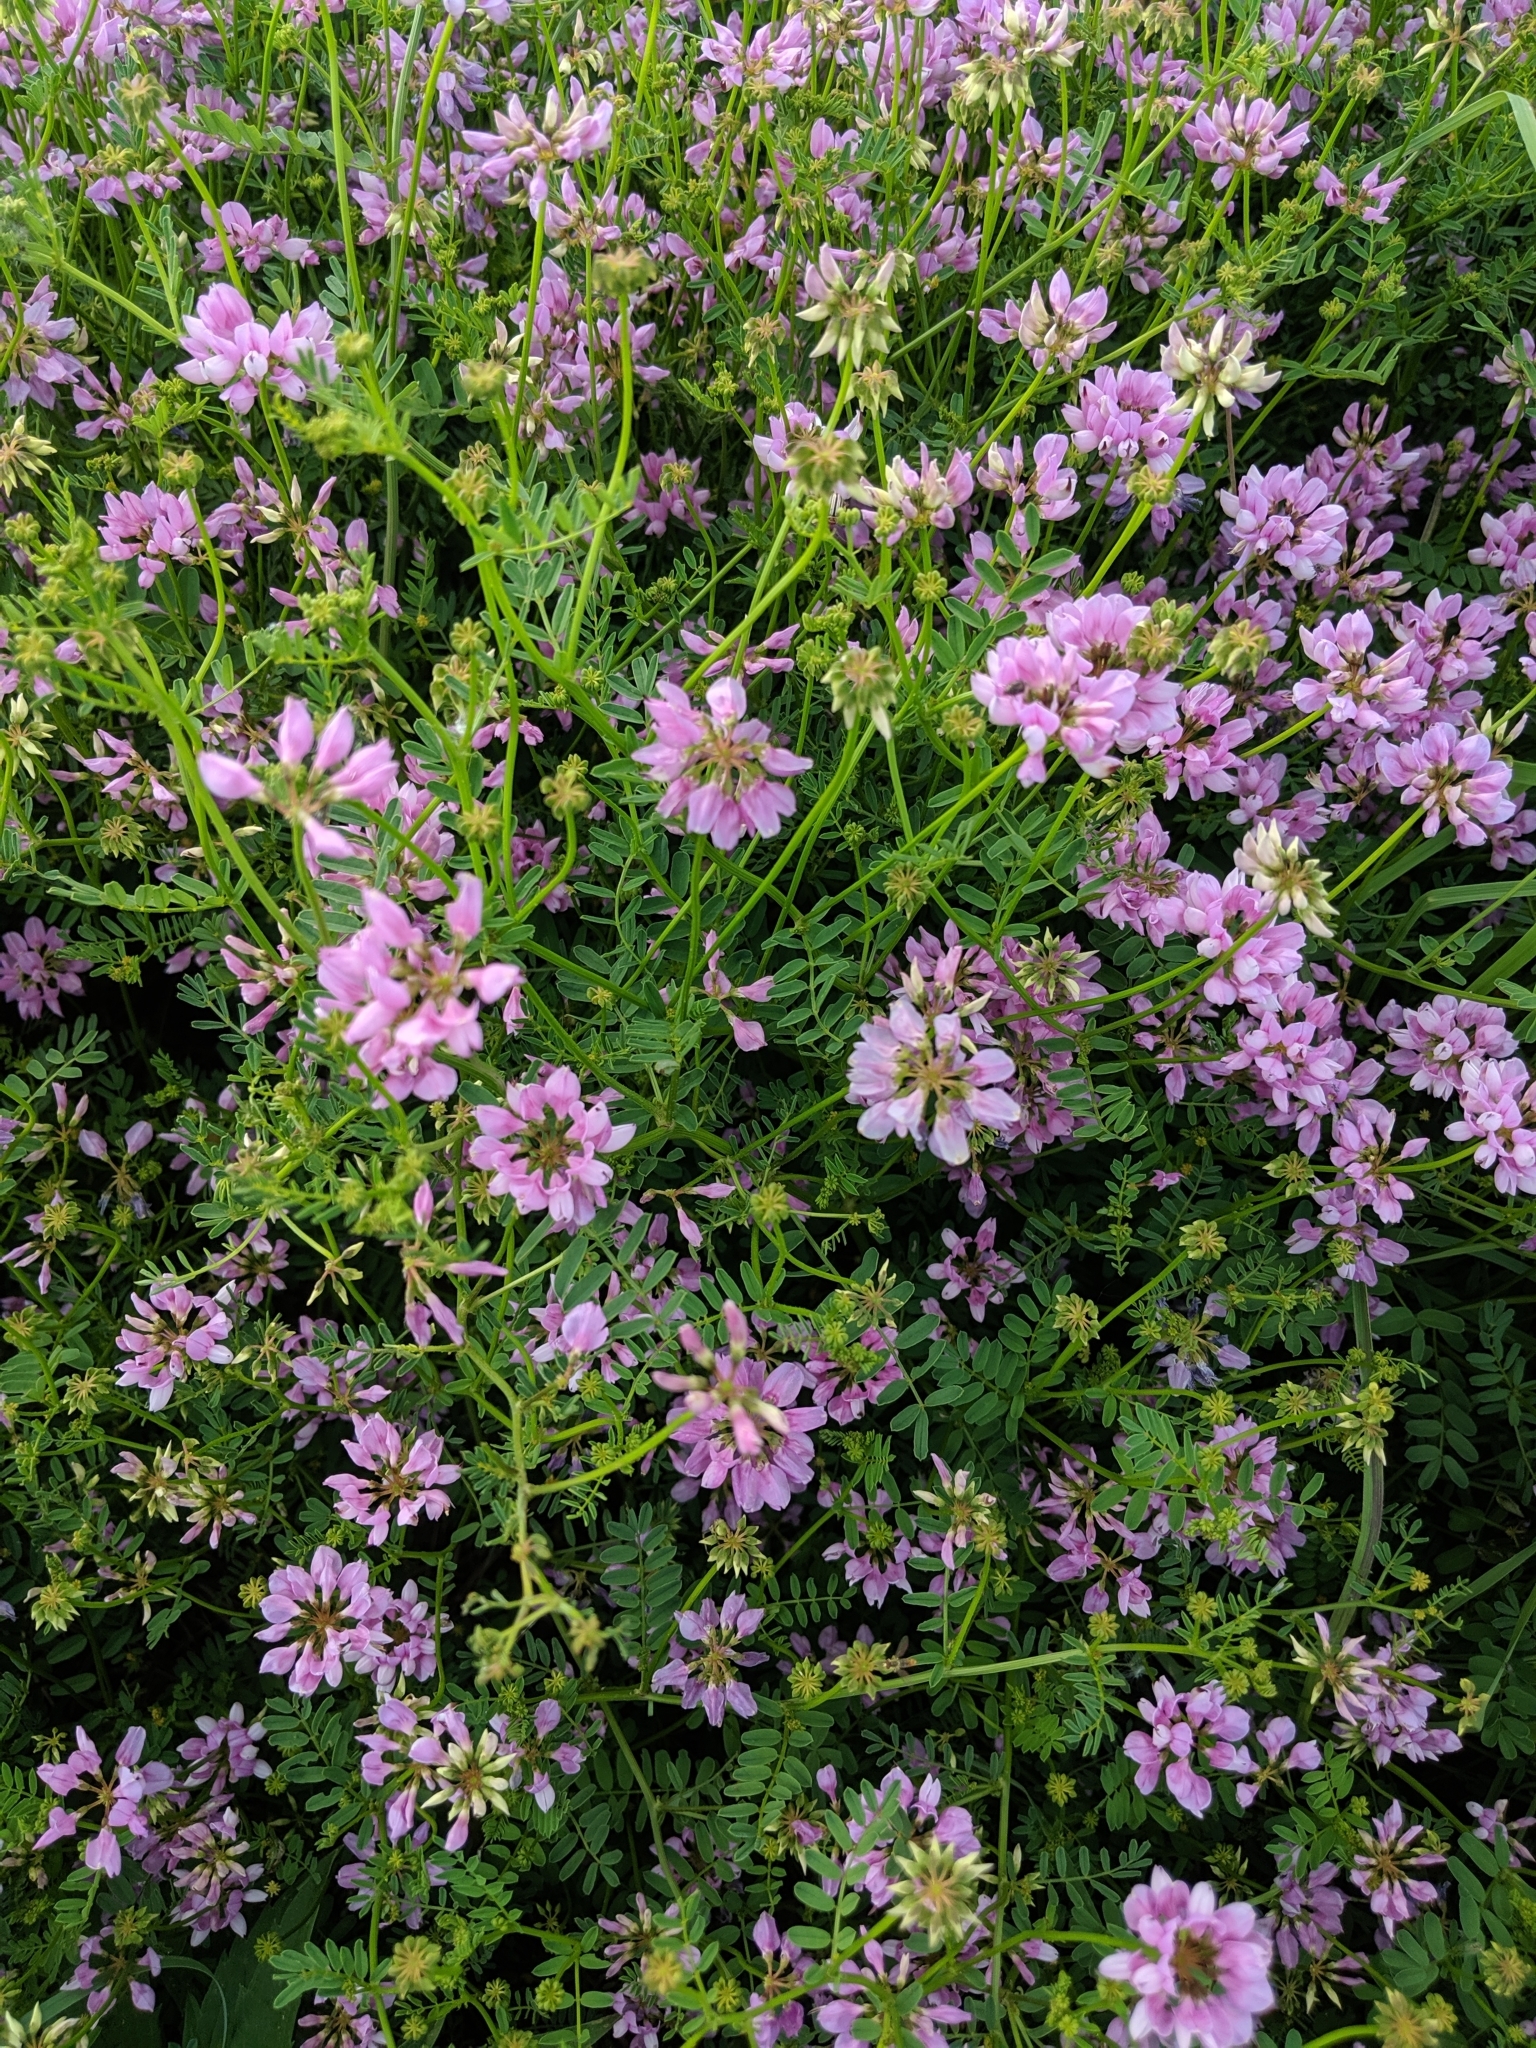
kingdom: Plantae
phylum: Tracheophyta
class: Magnoliopsida
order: Fabales
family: Fabaceae
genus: Coronilla
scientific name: Coronilla varia
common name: Crownvetch
